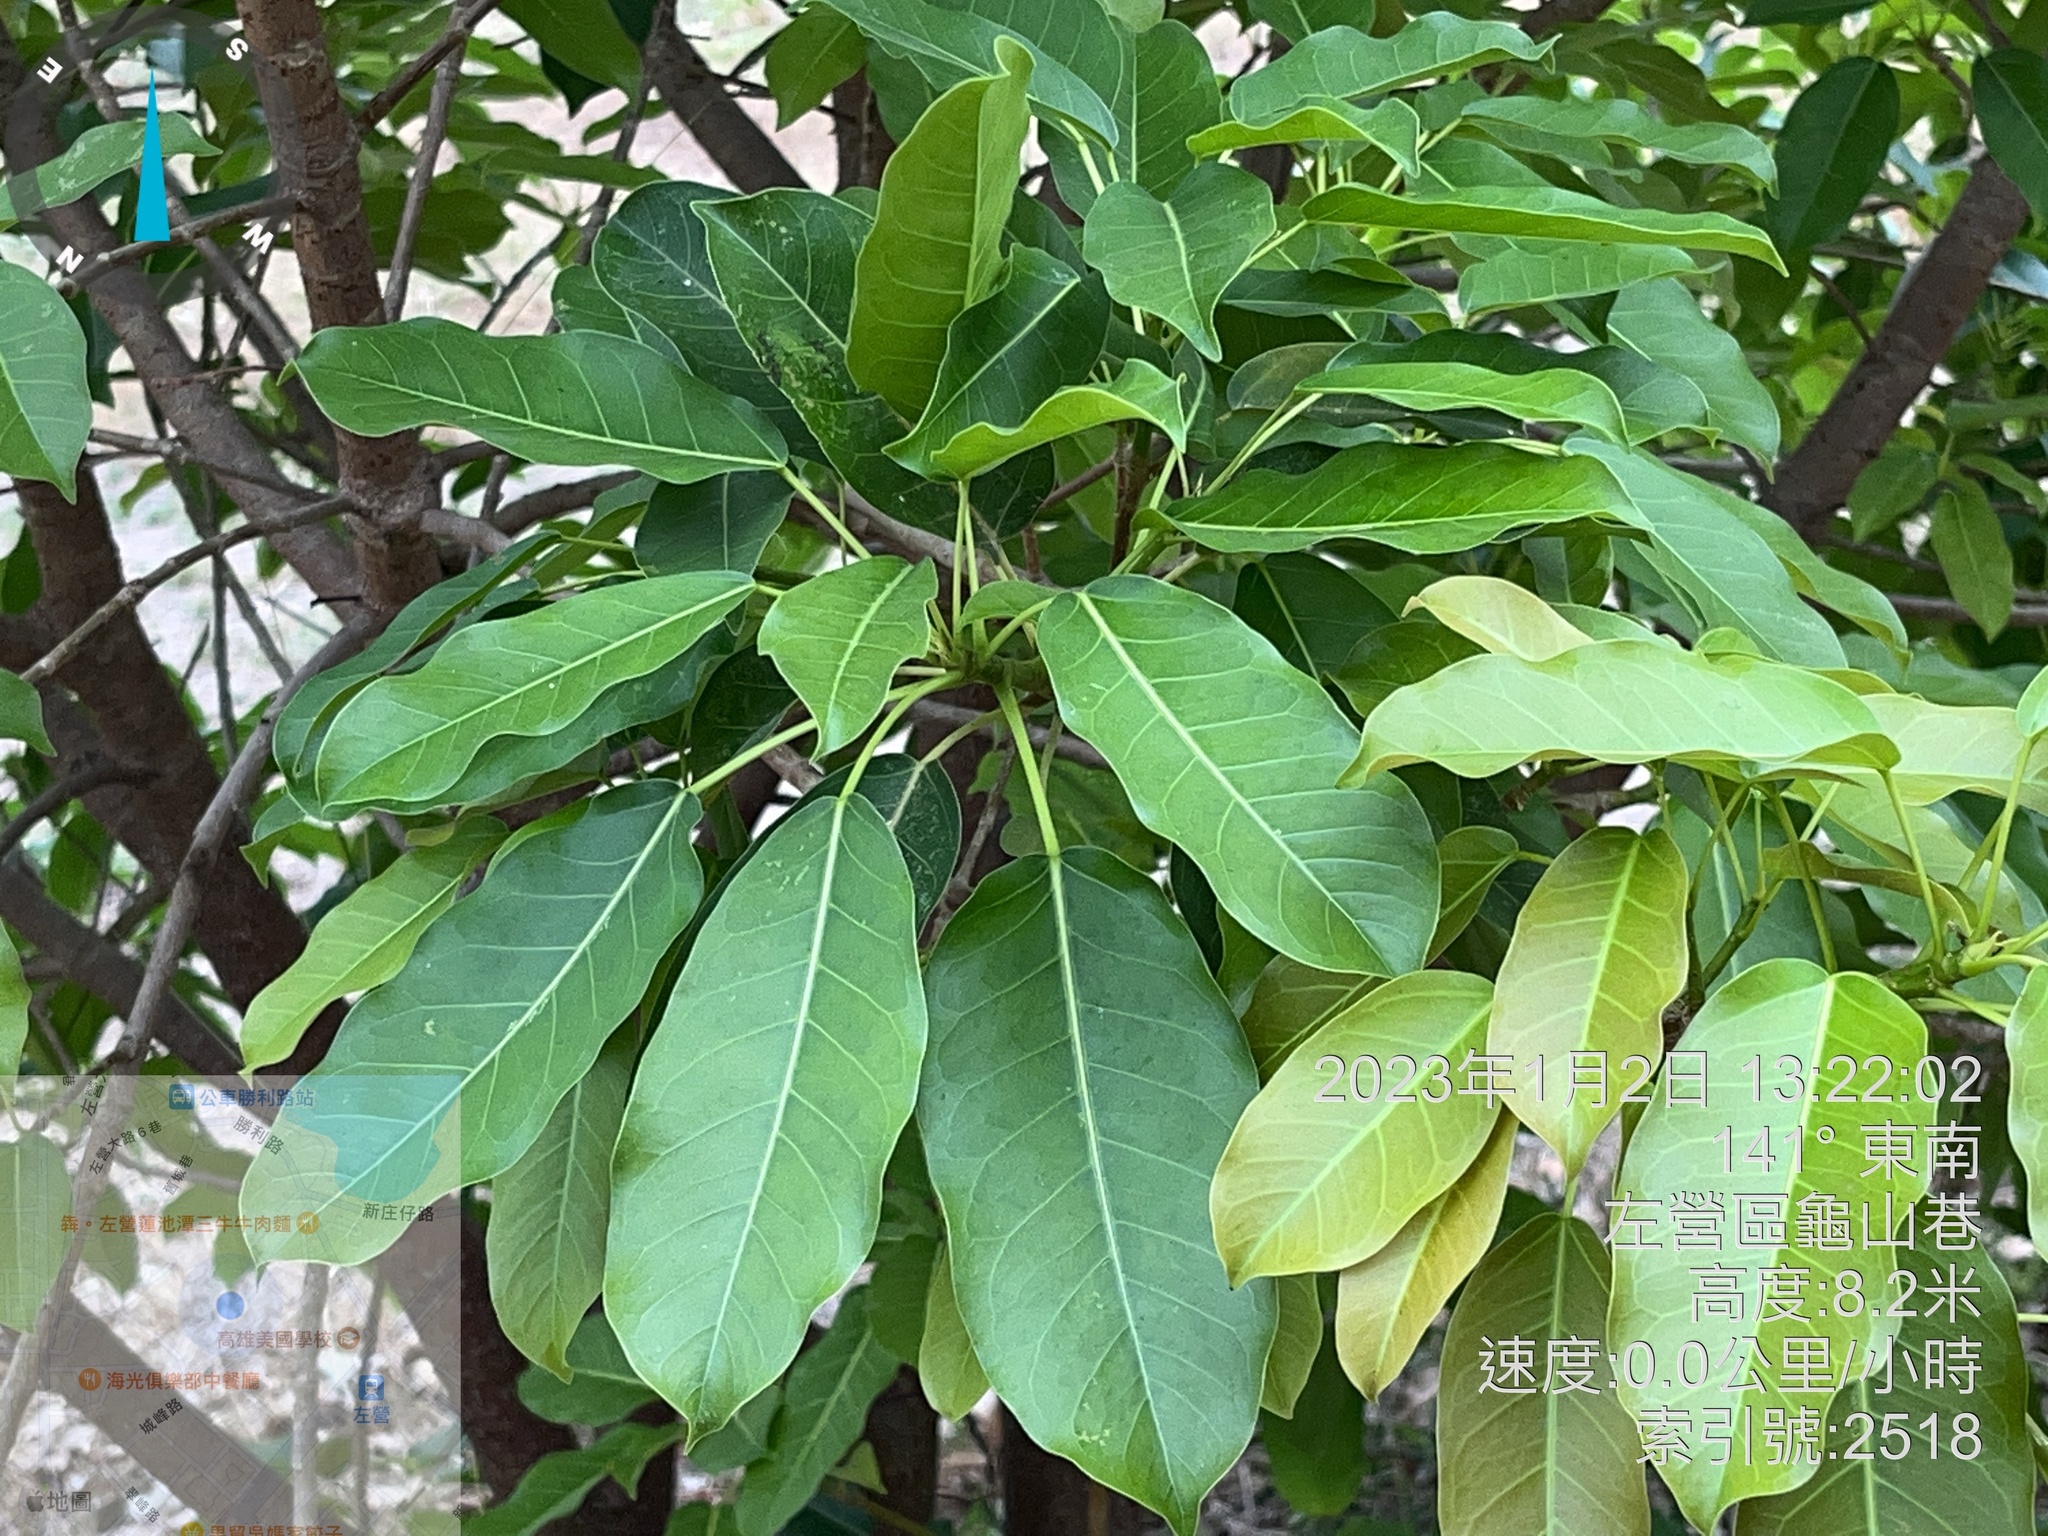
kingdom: Plantae
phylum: Tracheophyta
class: Magnoliopsida
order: Rosales
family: Moraceae
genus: Ficus
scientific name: Ficus subpisocarpa
